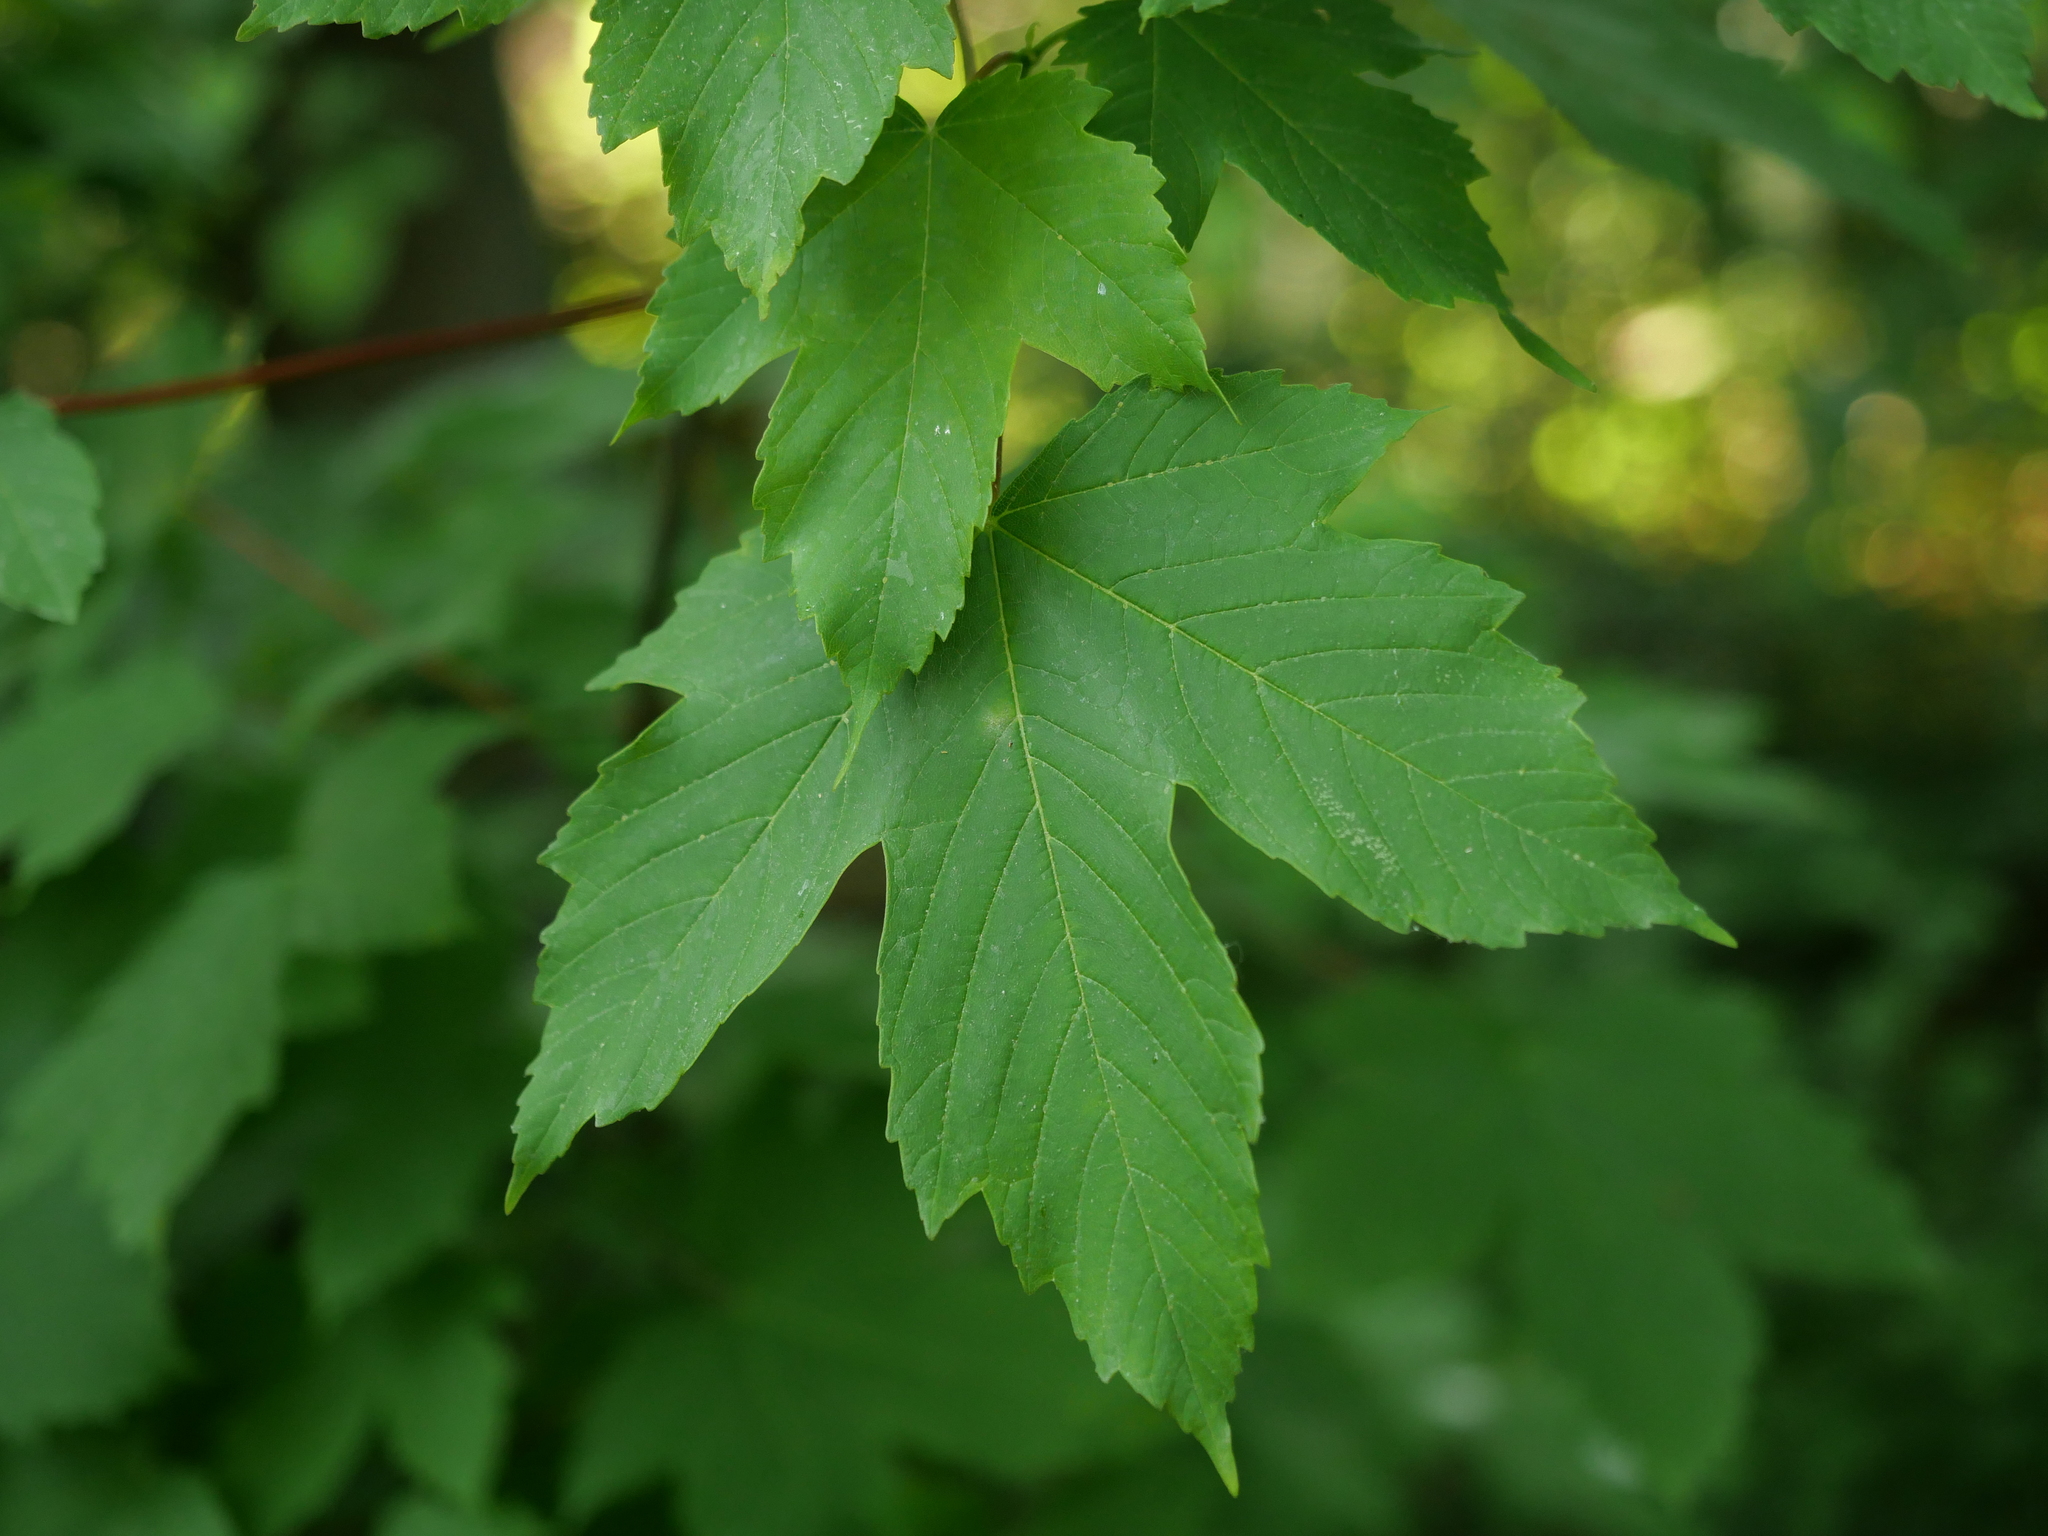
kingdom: Plantae
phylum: Tracheophyta
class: Magnoliopsida
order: Sapindales
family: Sapindaceae
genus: Acer
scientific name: Acer pseudoplatanus
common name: Sycamore
